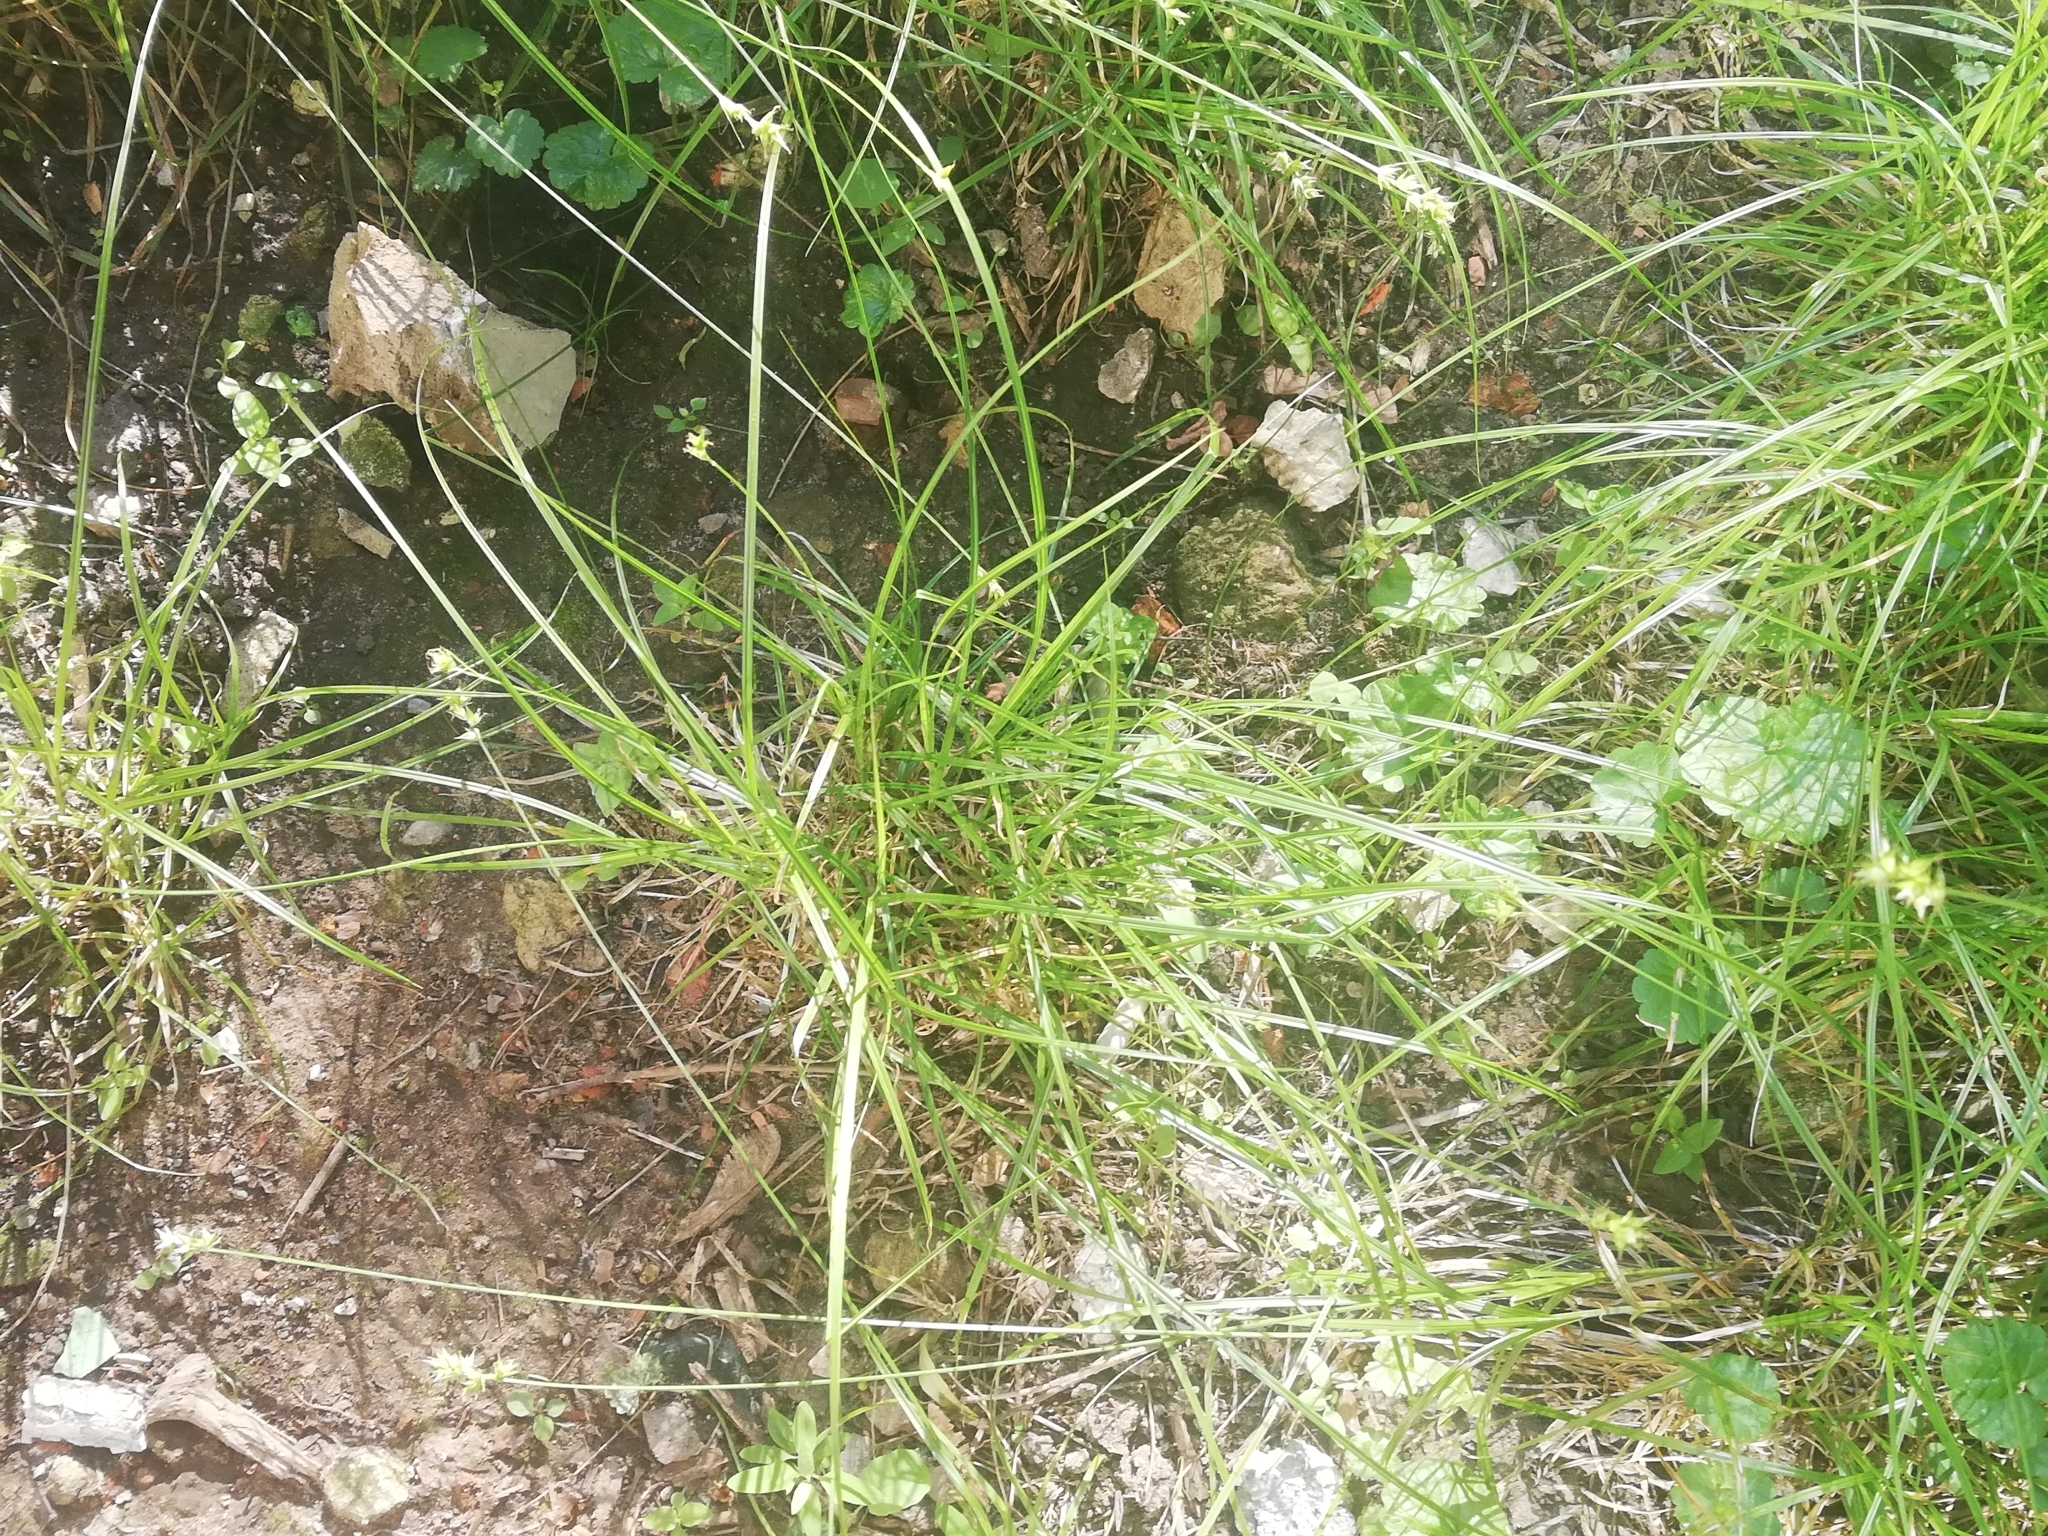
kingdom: Plantae
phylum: Tracheophyta
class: Liliopsida
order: Poales
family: Cyperaceae
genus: Carex
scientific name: Carex spicata
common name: Spiked sedge
